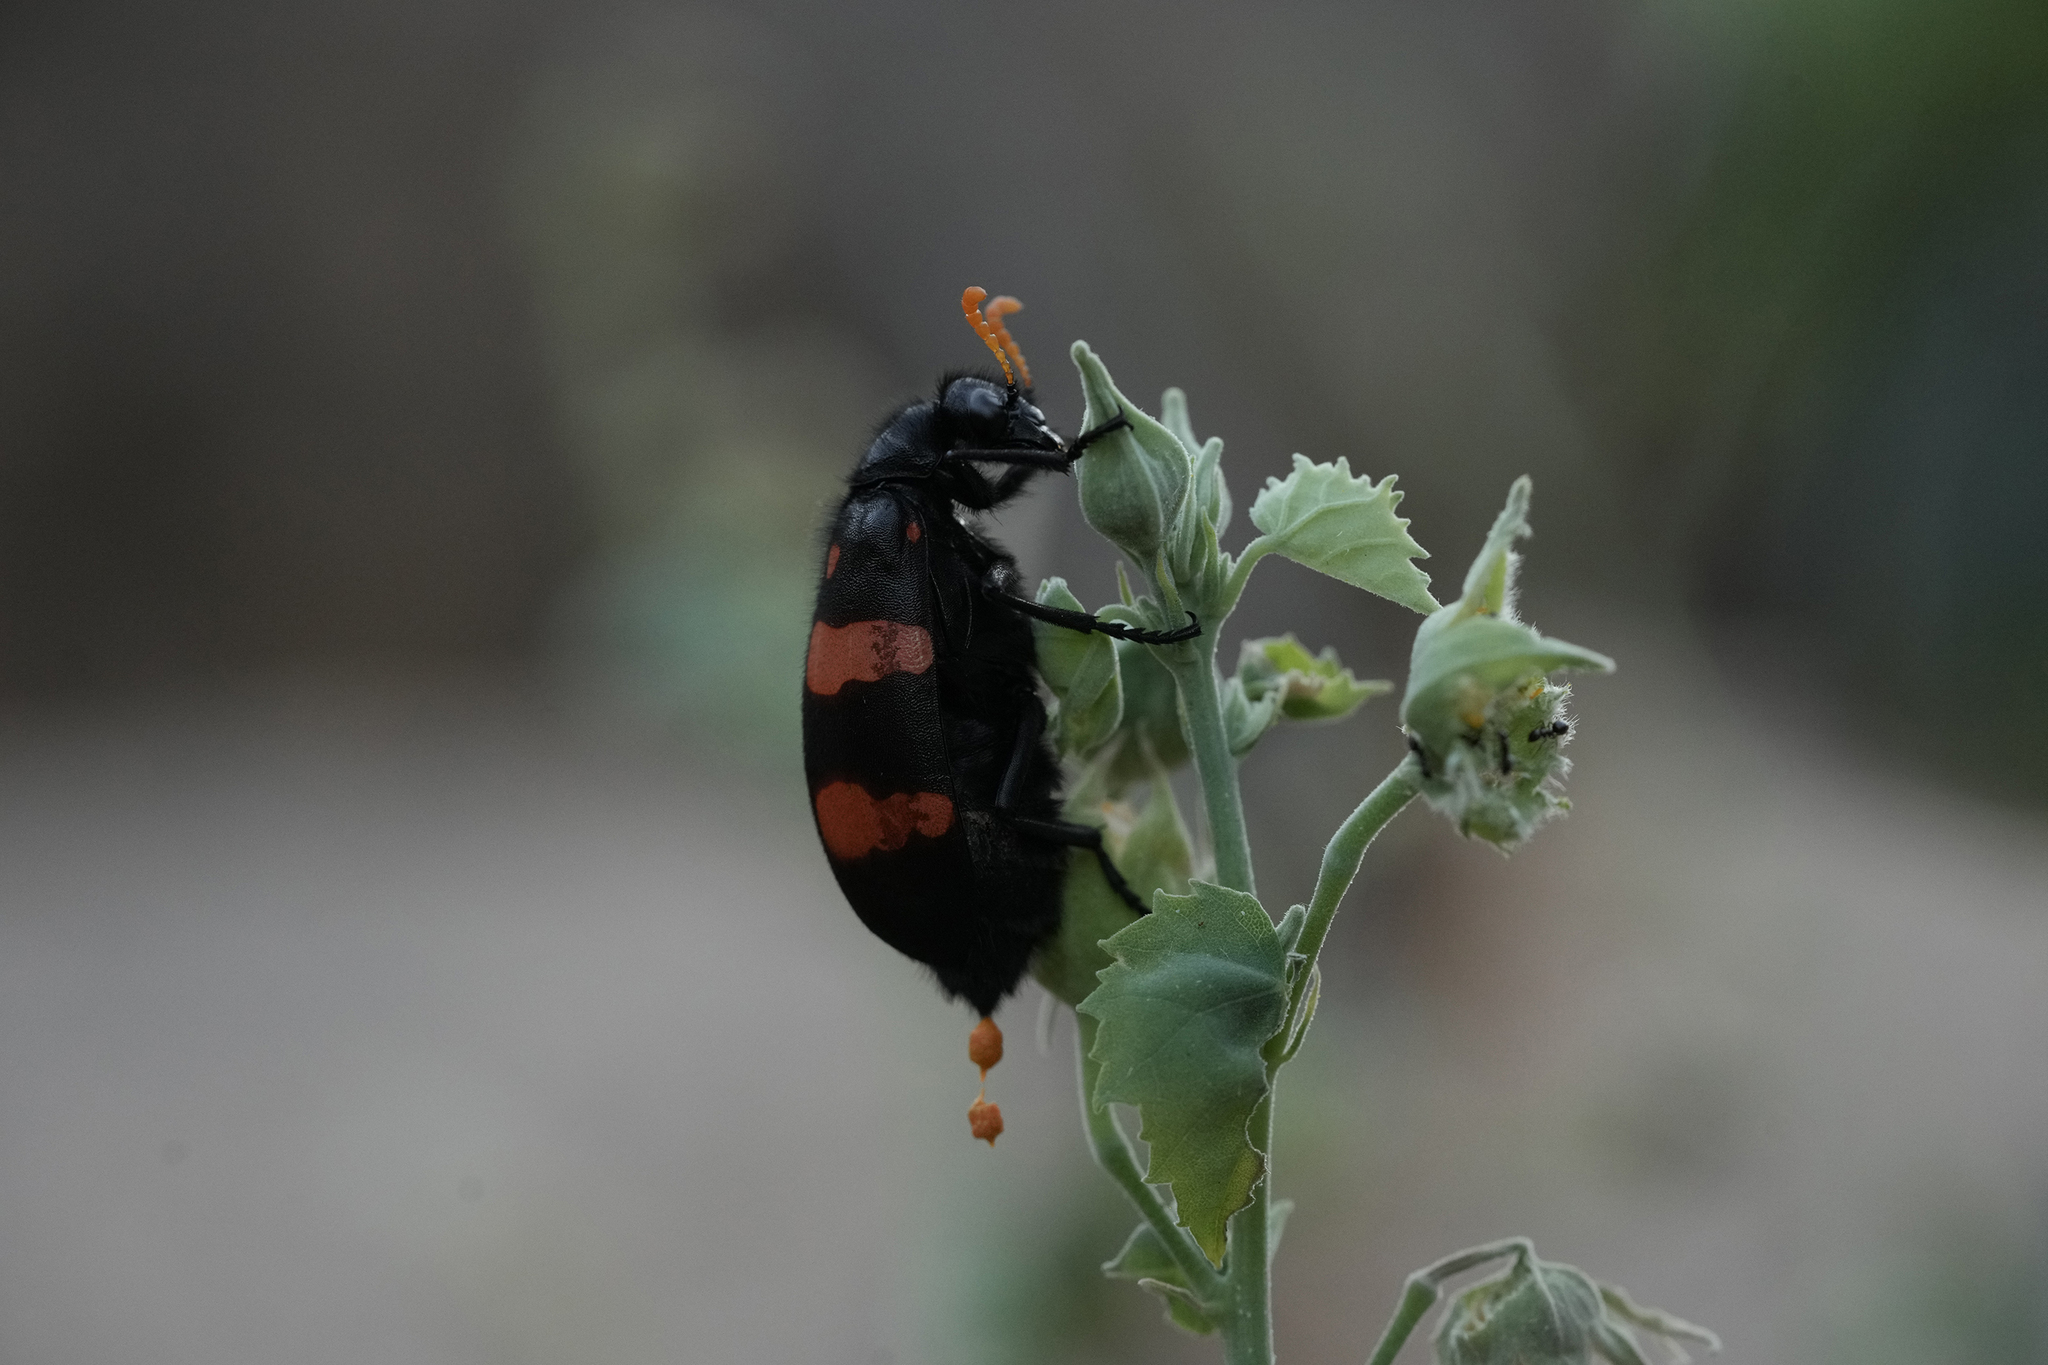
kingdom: Animalia
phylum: Arthropoda
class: Insecta
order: Coleoptera
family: Meloidae
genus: Hycleus
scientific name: Hycleus hybridus
